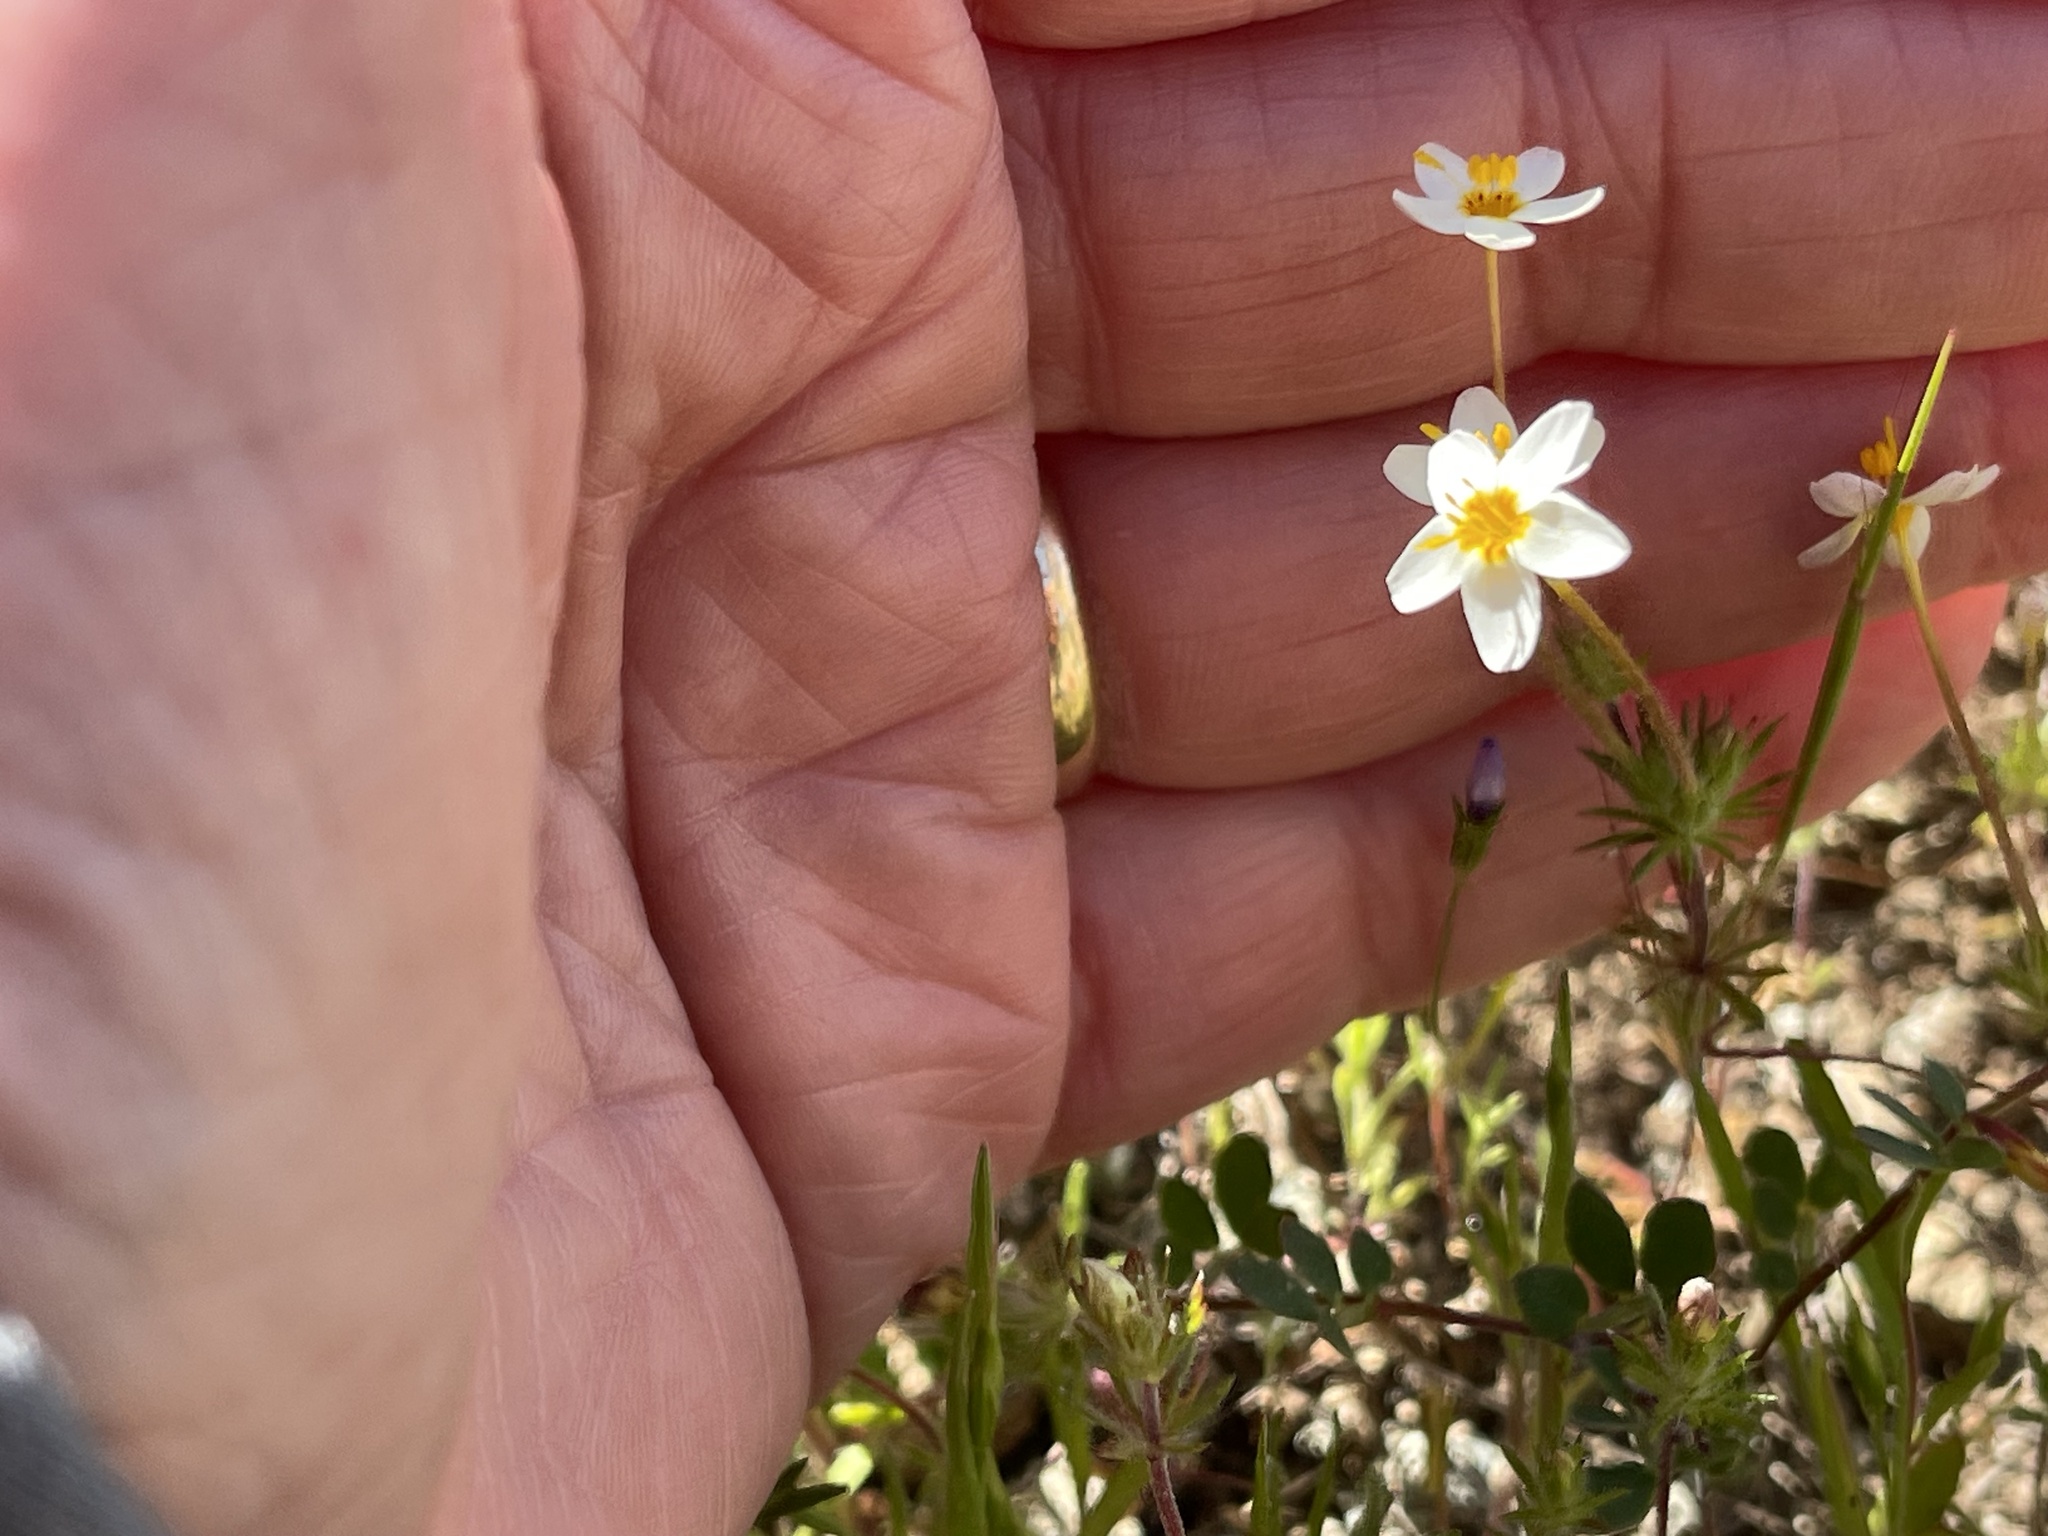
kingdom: Plantae
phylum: Tracheophyta
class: Magnoliopsida
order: Ericales
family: Polemoniaceae
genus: Leptosiphon
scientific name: Leptosiphon parviflorus
